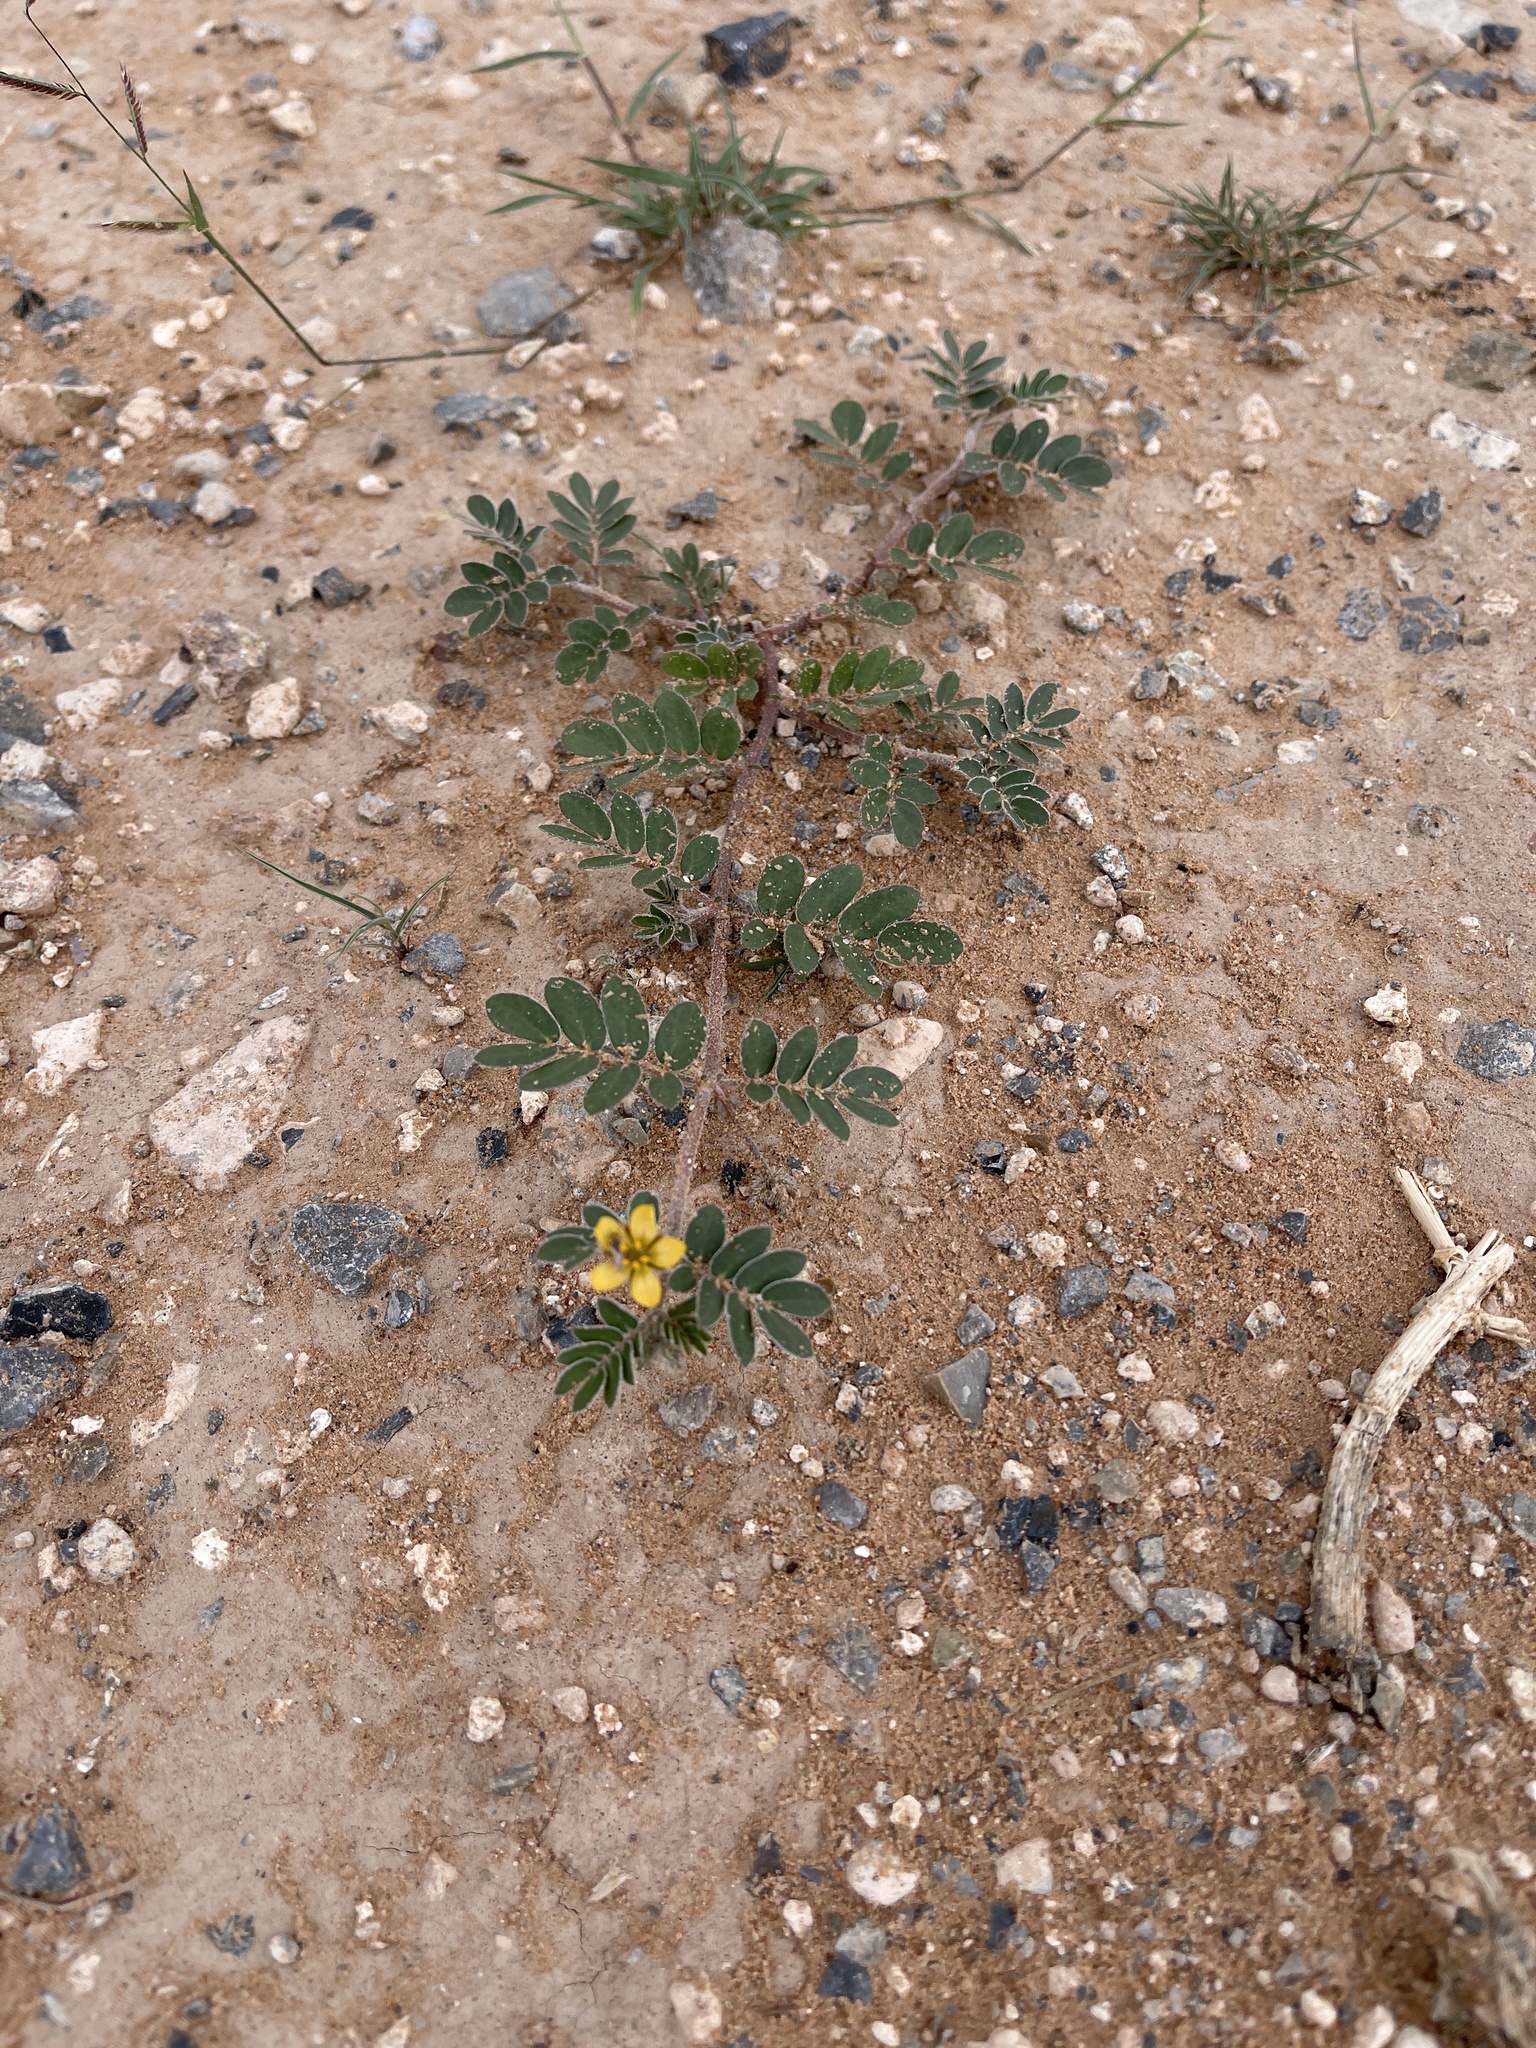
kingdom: Plantae
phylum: Tracheophyta
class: Magnoliopsida
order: Zygophyllales
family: Zygophyllaceae
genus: Tribulus
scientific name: Tribulus terrestris
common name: Puncturevine
